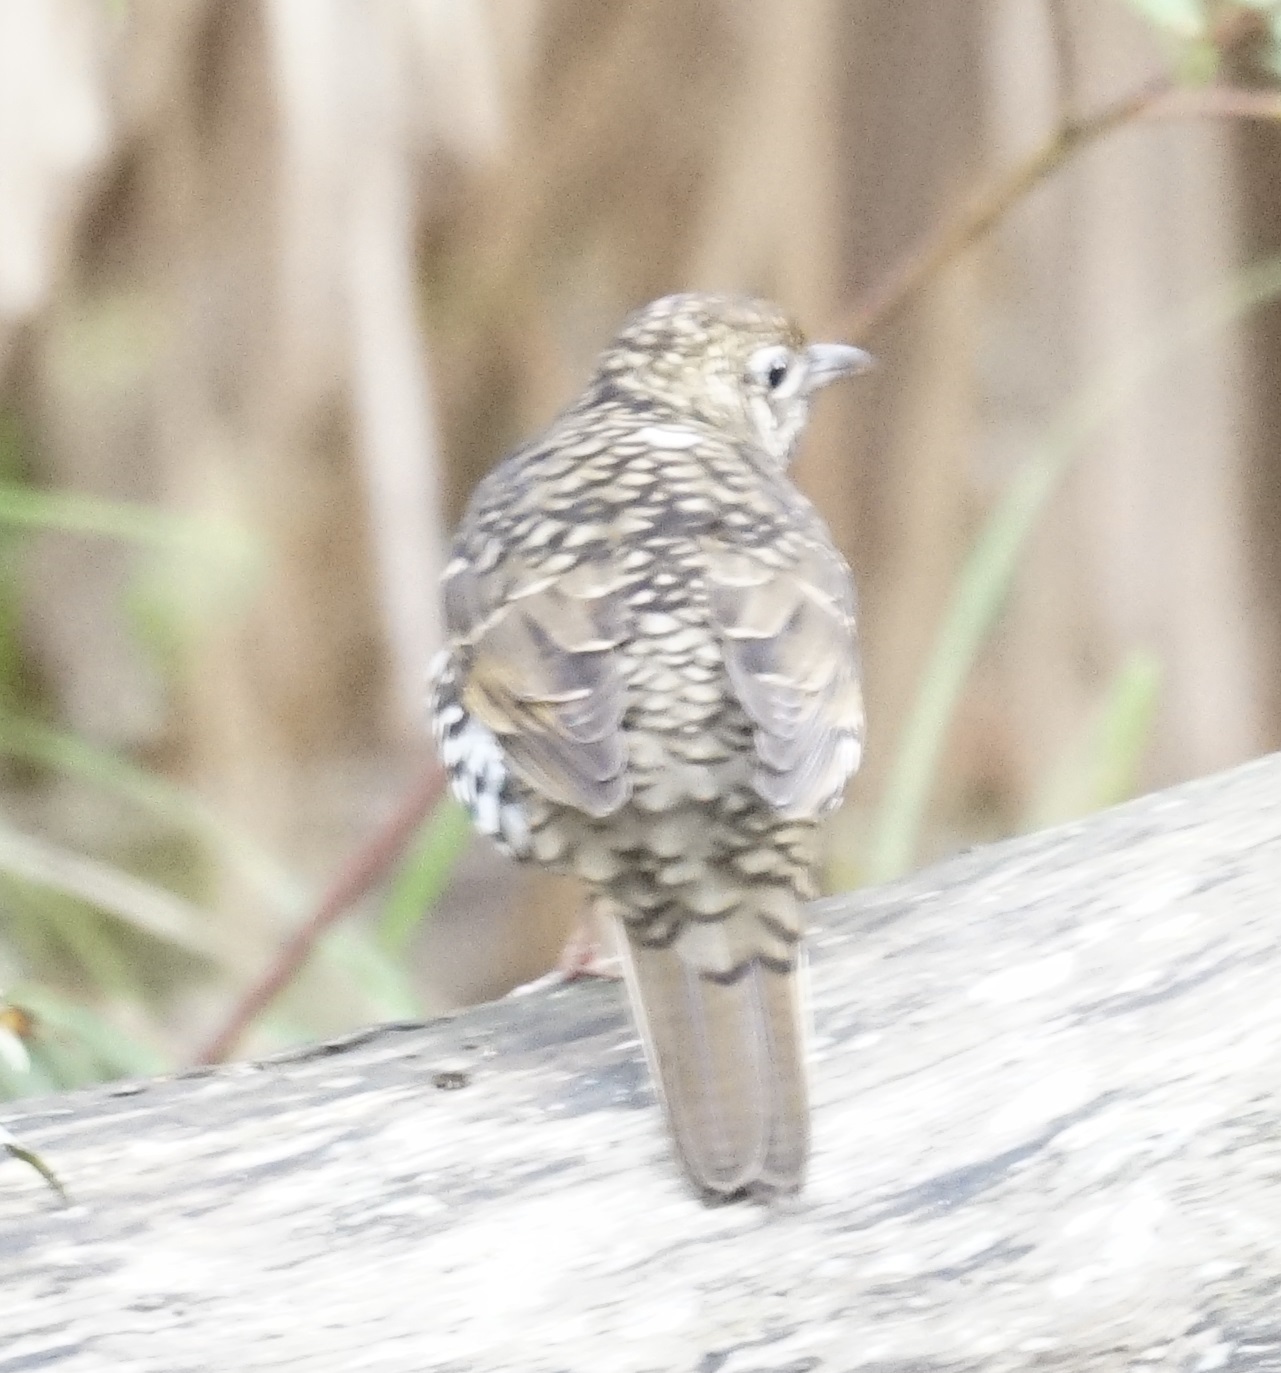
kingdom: Animalia
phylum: Chordata
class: Aves
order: Passeriformes
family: Turdidae
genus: Zoothera
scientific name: Zoothera lunulata
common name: Bassian thrush
